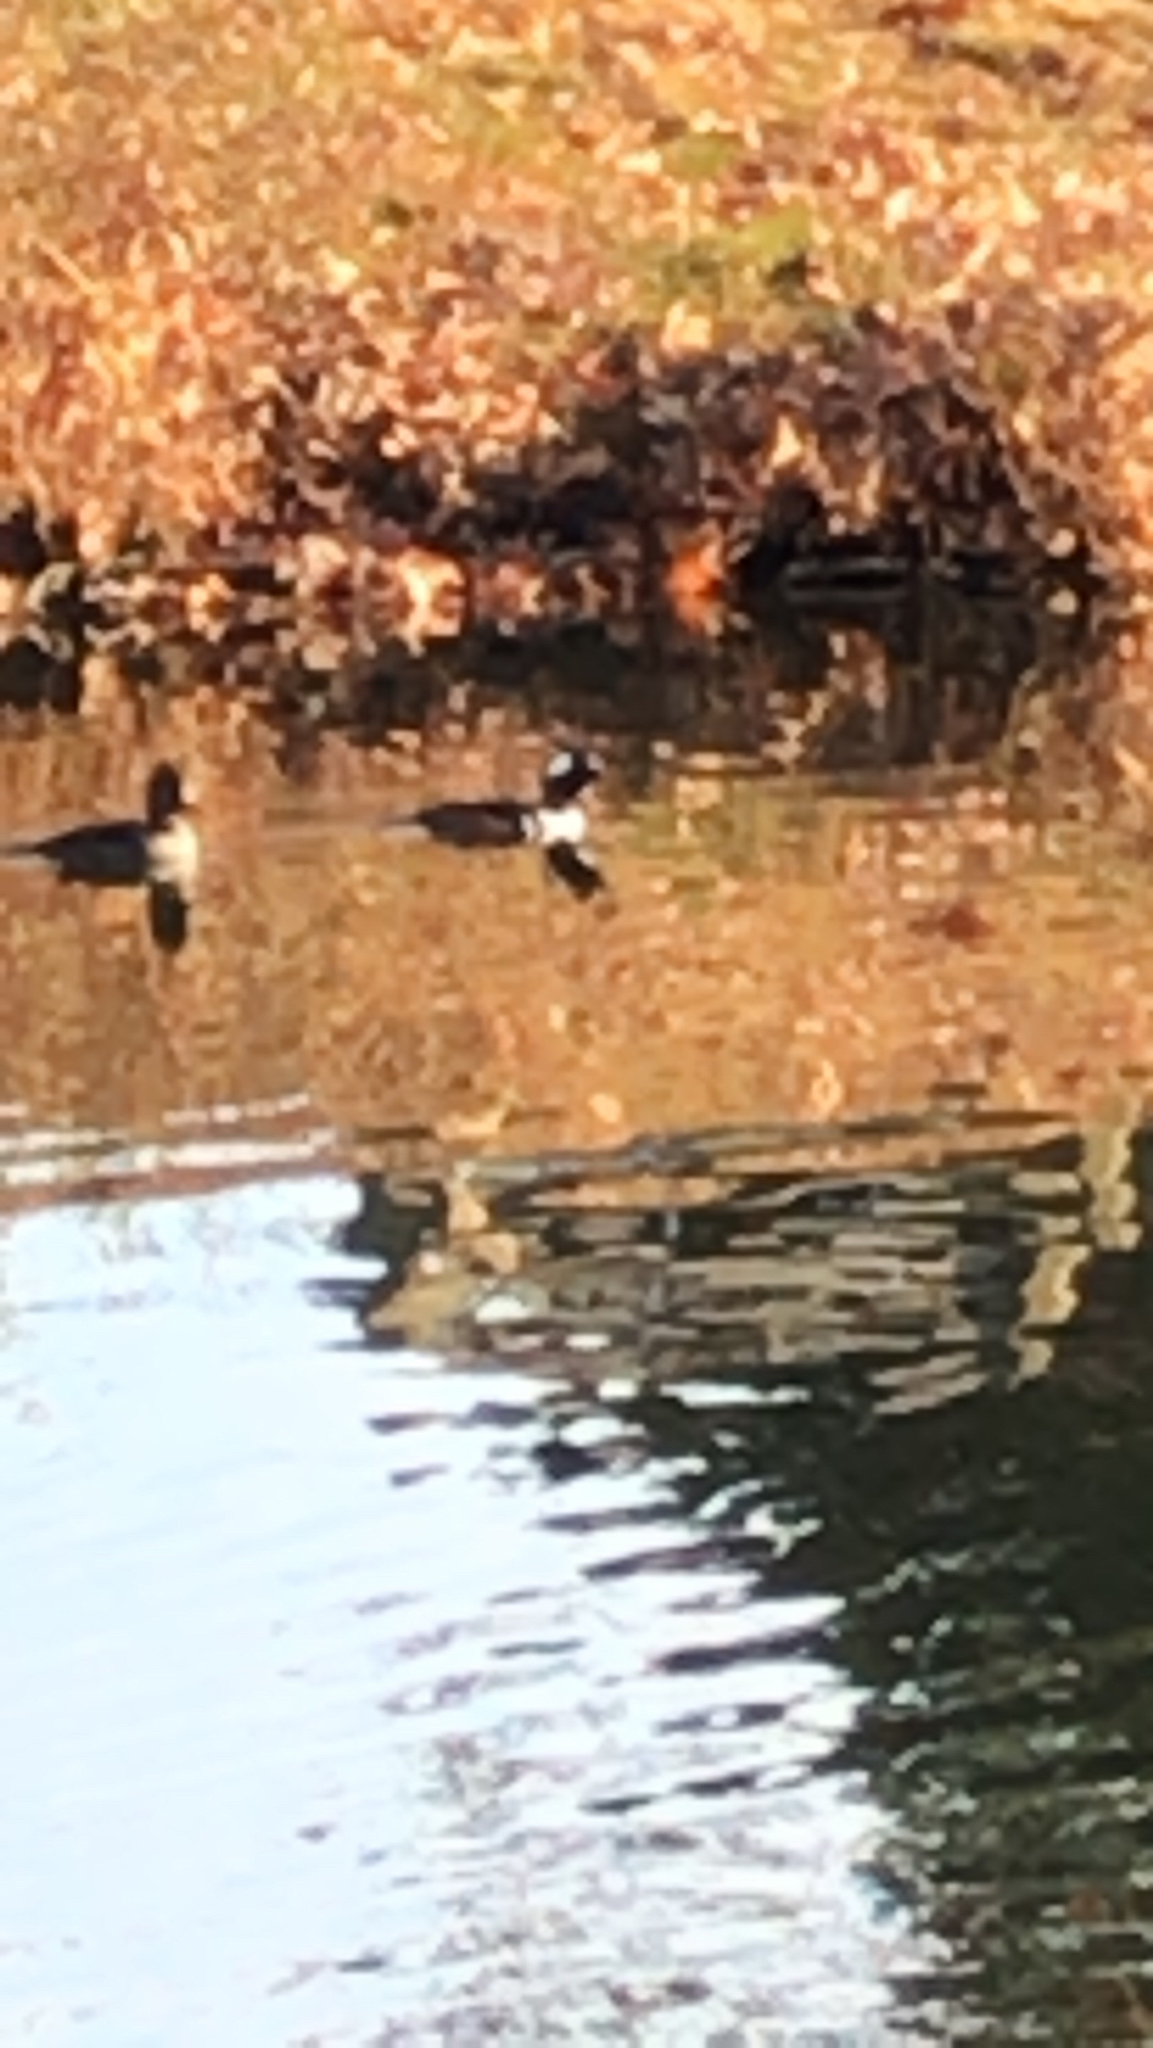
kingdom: Animalia
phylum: Chordata
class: Aves
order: Anseriformes
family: Anatidae
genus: Lophodytes
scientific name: Lophodytes cucullatus
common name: Hooded merganser
